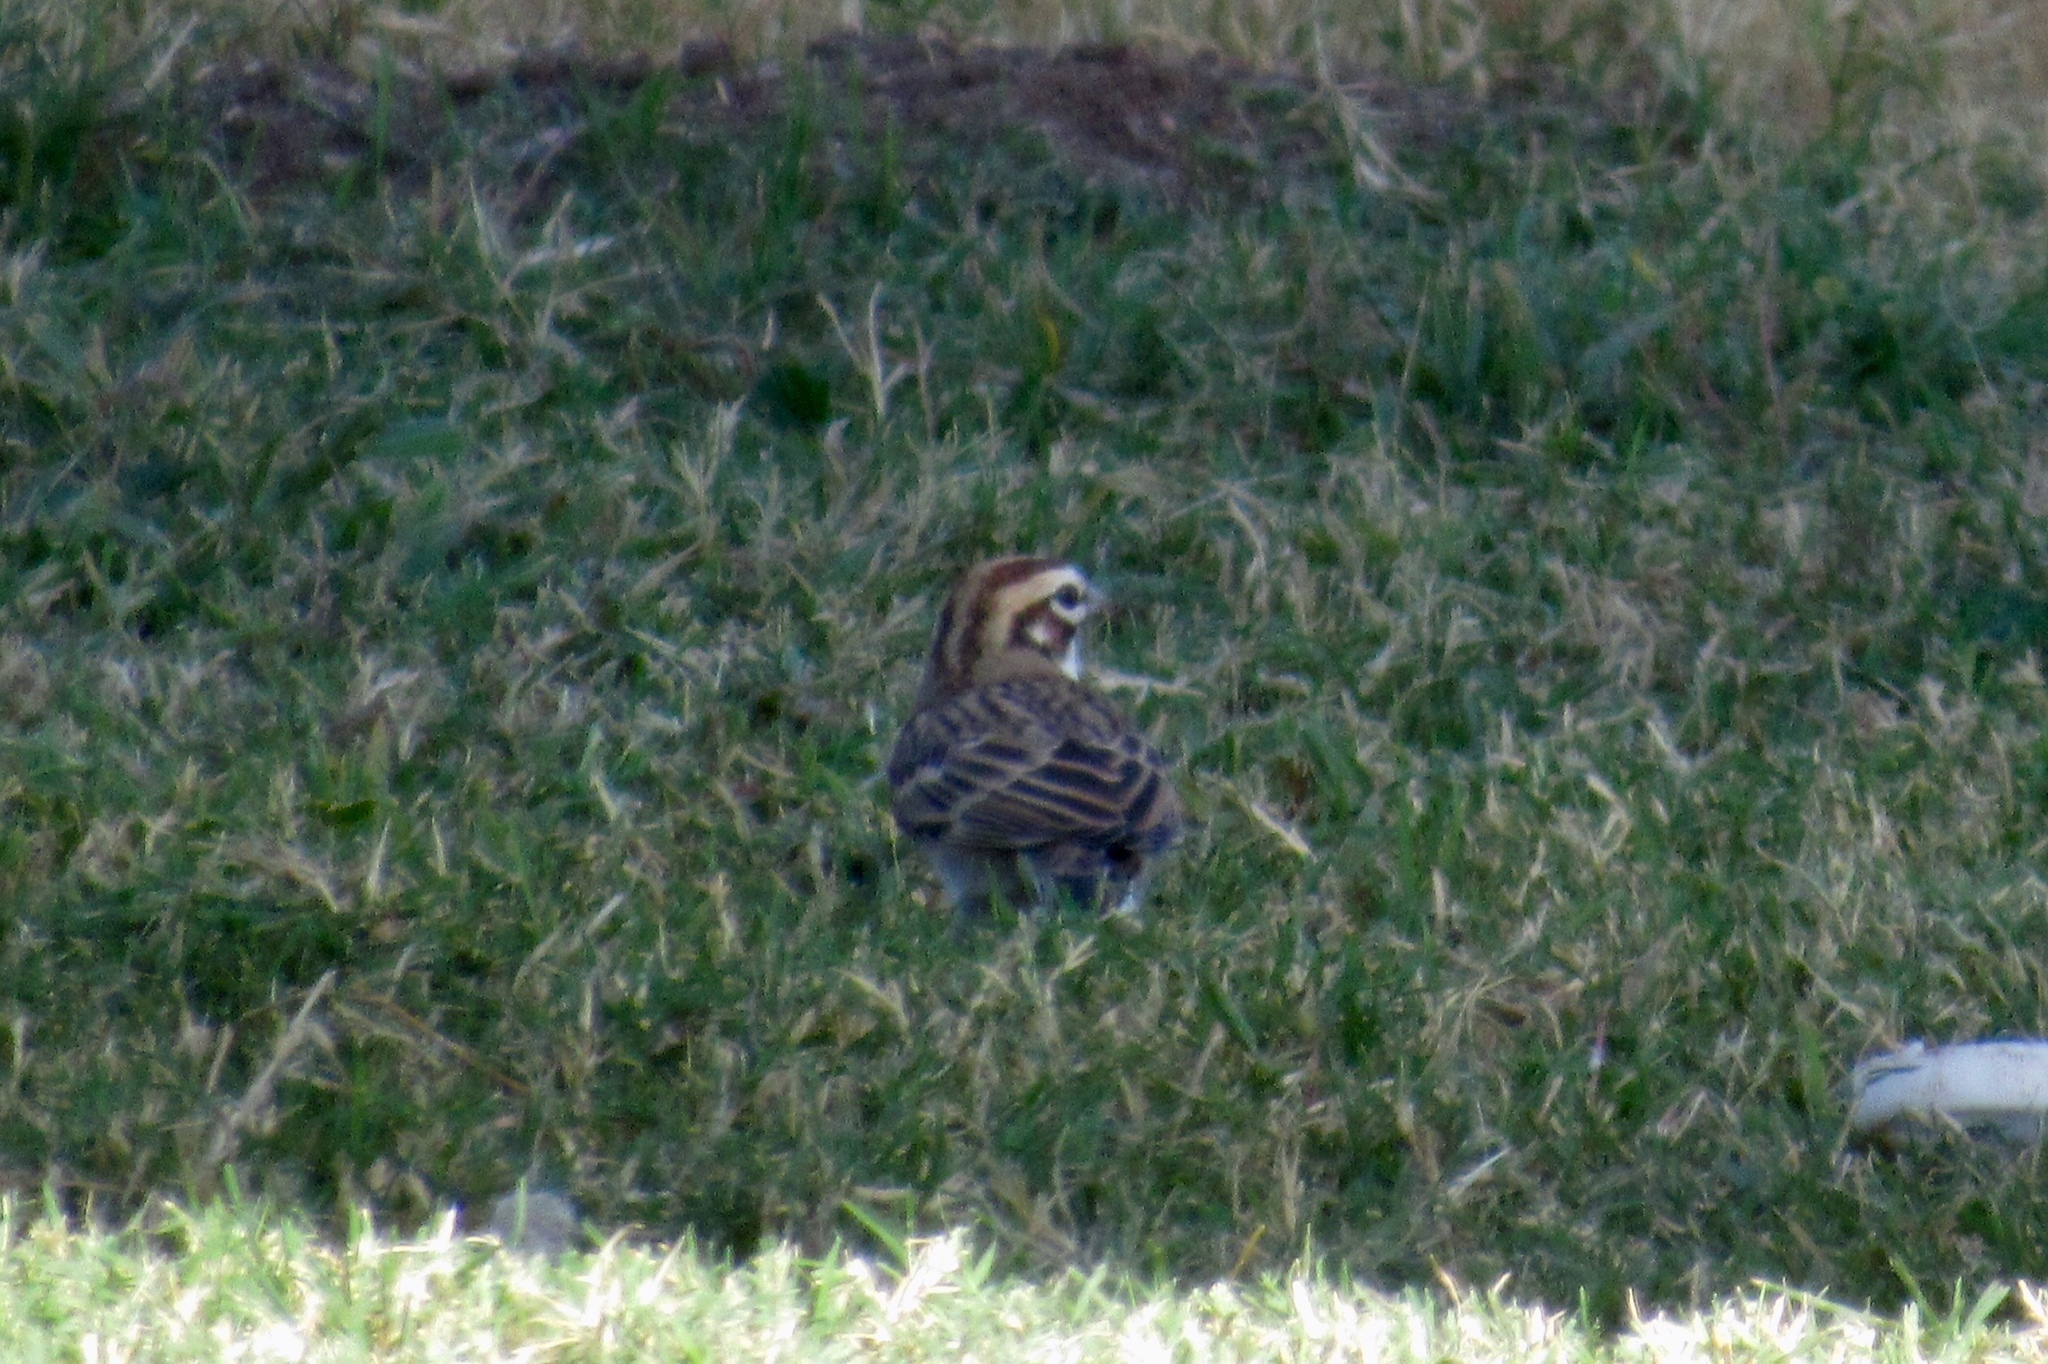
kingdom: Animalia
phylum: Chordata
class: Aves
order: Passeriformes
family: Passerellidae
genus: Chondestes
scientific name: Chondestes grammacus
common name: Lark sparrow
